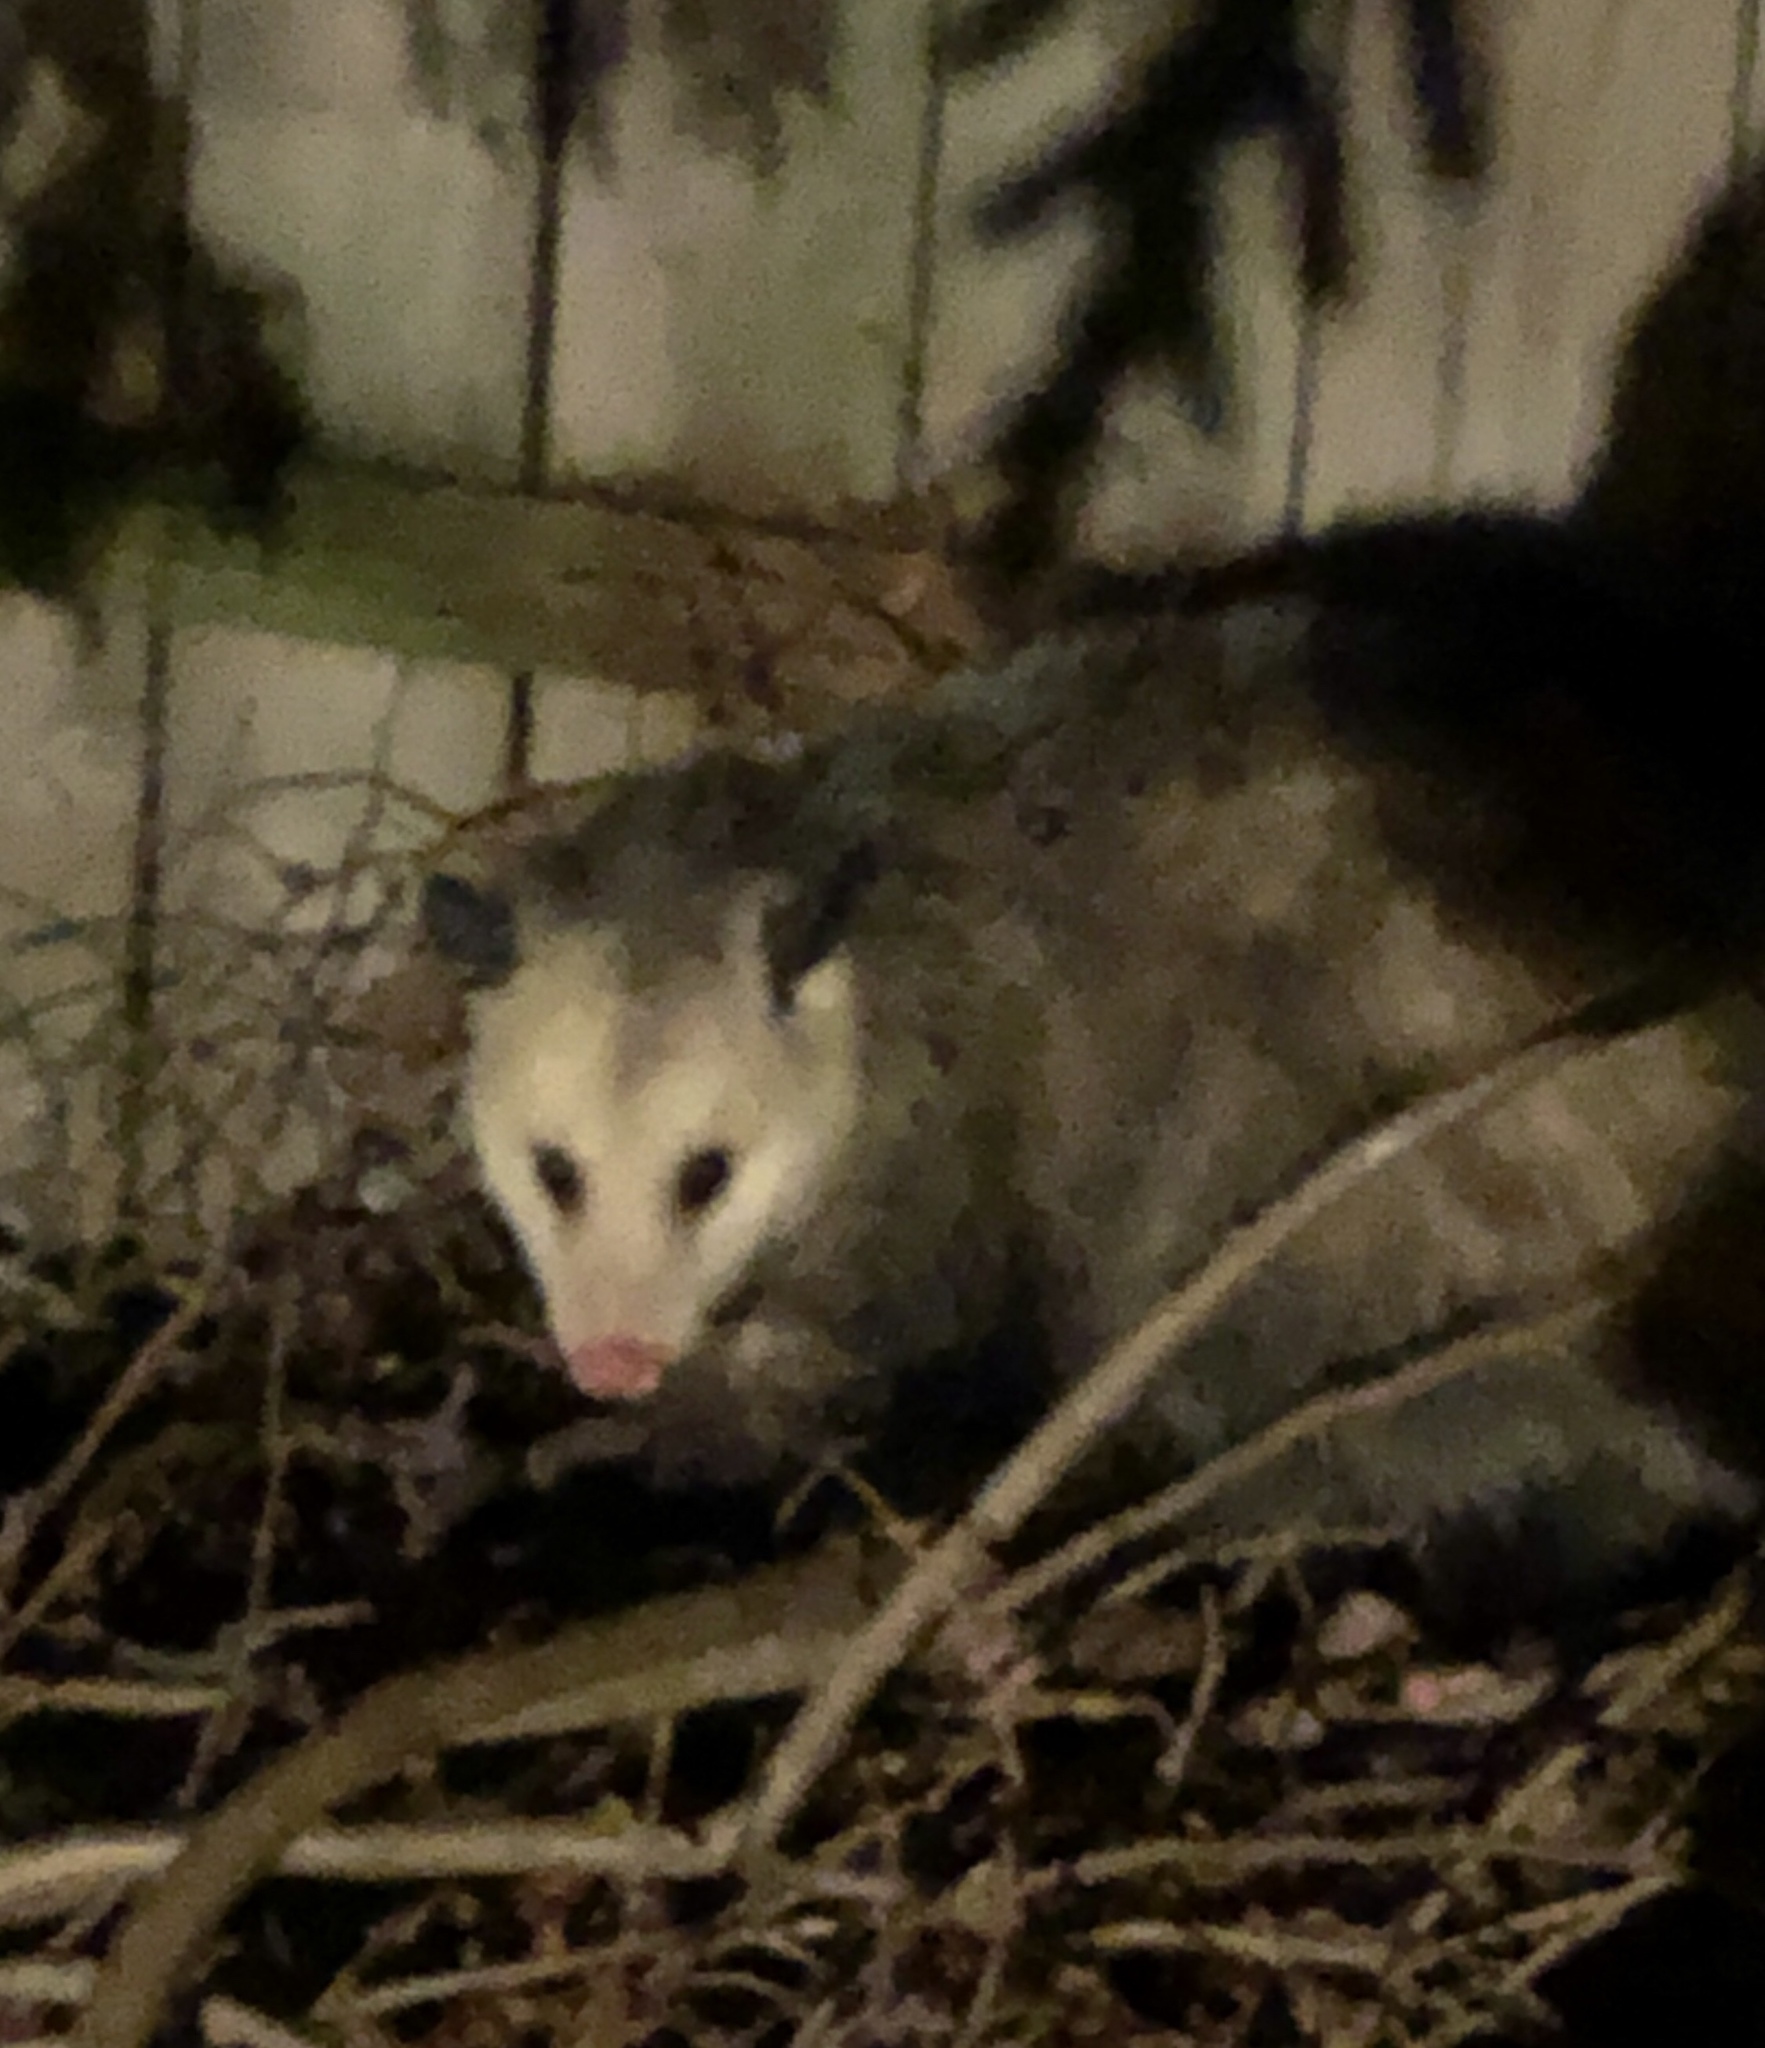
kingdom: Animalia
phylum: Chordata
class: Mammalia
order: Didelphimorphia
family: Didelphidae
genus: Didelphis
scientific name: Didelphis virginiana
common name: Virginia opossum
